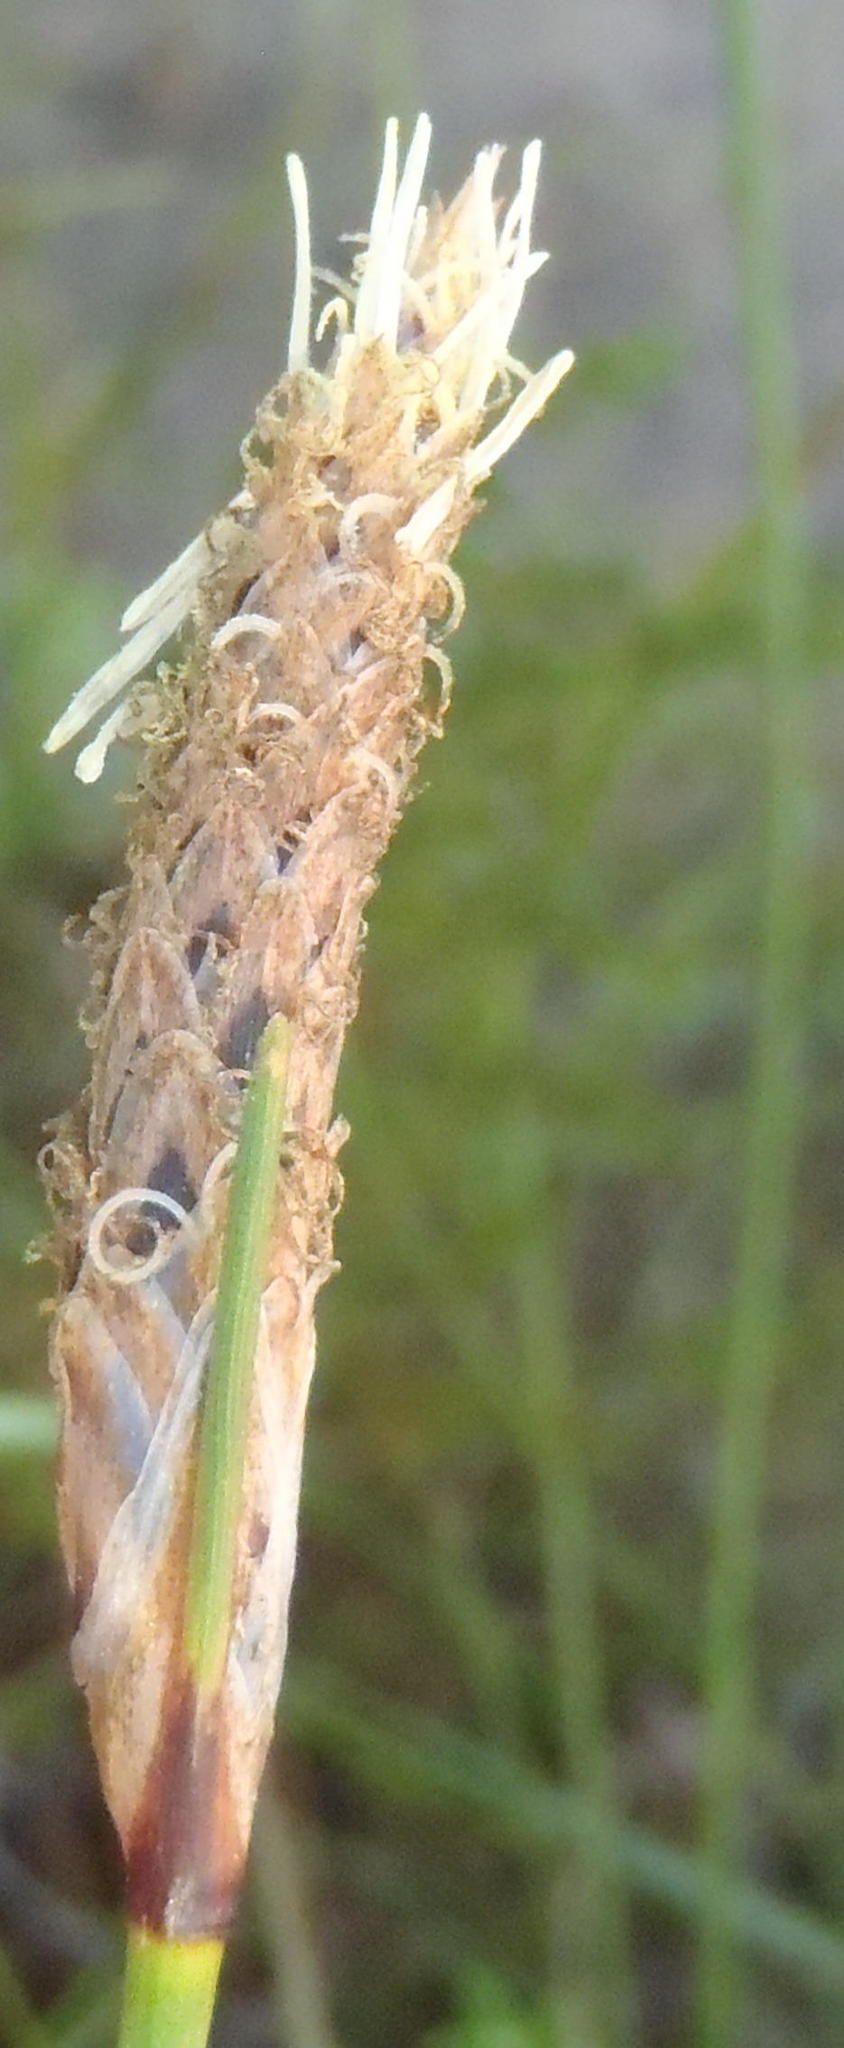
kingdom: Plantae
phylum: Tracheophyta
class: Liliopsida
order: Poales
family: Cyperaceae
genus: Ficinia
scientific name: Ficinia deusta
